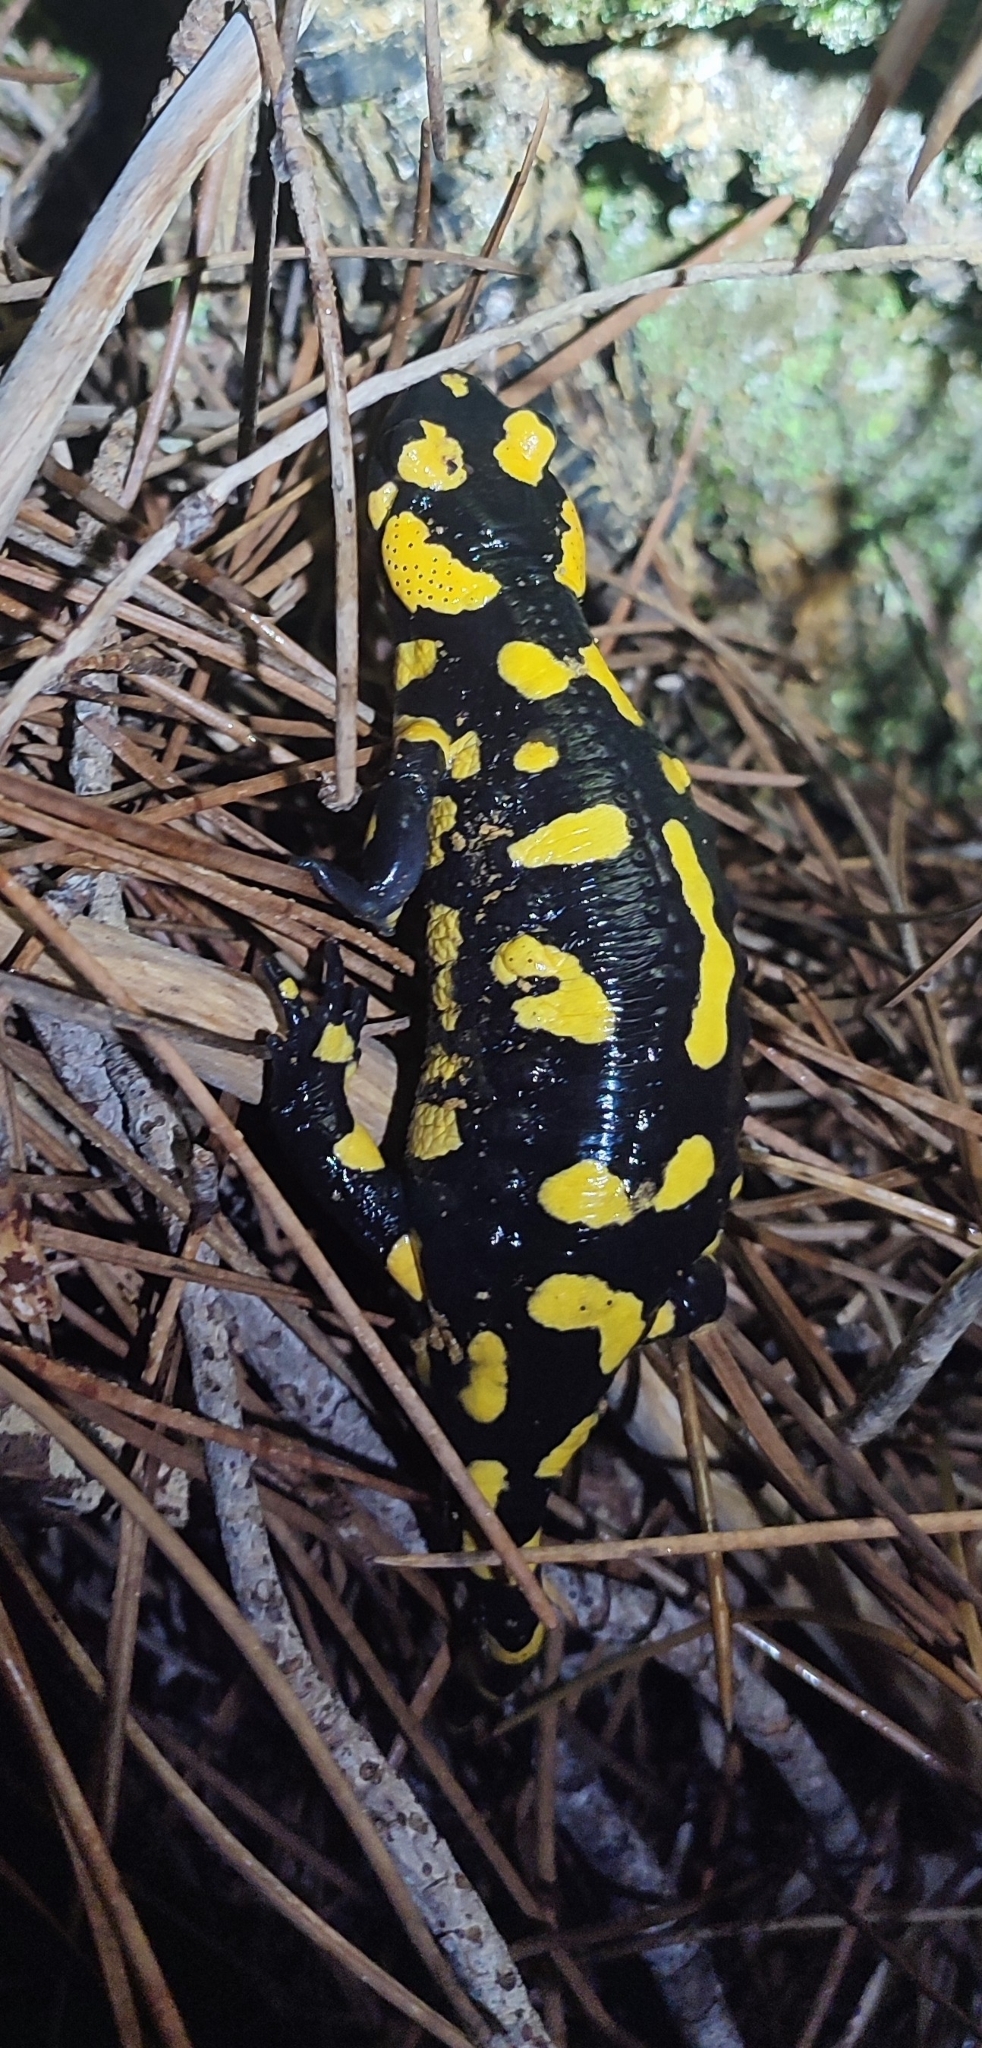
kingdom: Animalia
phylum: Chordata
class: Amphibia
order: Caudata
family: Salamandridae
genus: Salamandra
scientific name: Salamandra salamandra
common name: Fire salamander
